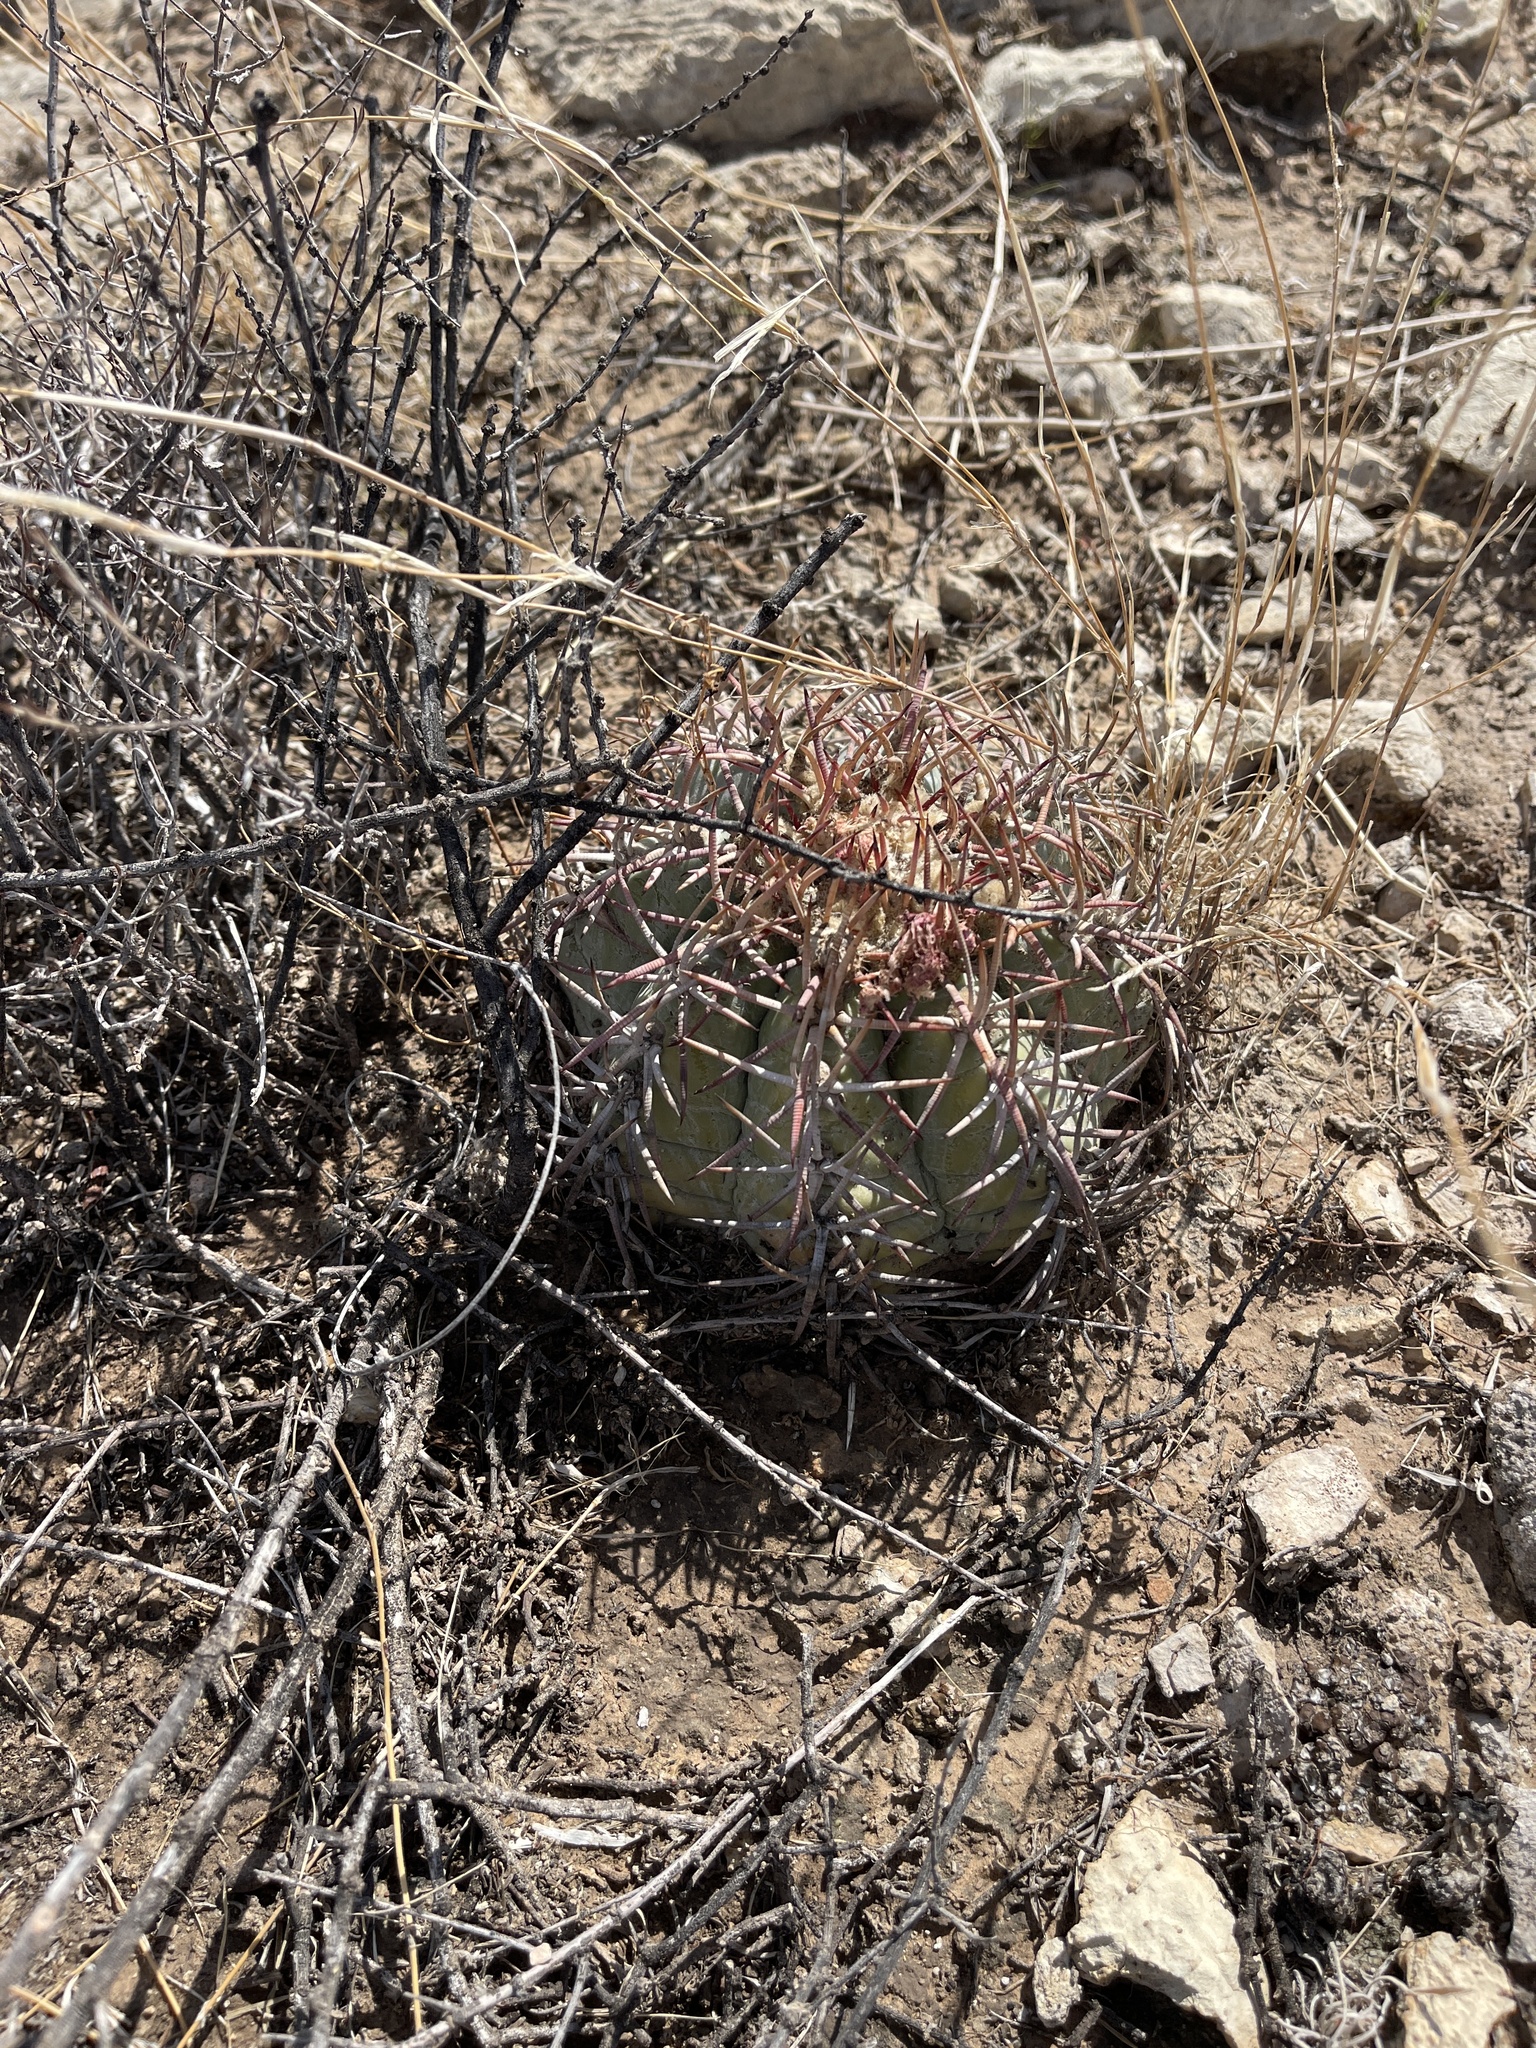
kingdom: Plantae
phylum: Tracheophyta
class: Magnoliopsida
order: Caryophyllales
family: Cactaceae
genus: Echinocactus
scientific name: Echinocactus horizonthalonius
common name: Devilshead
